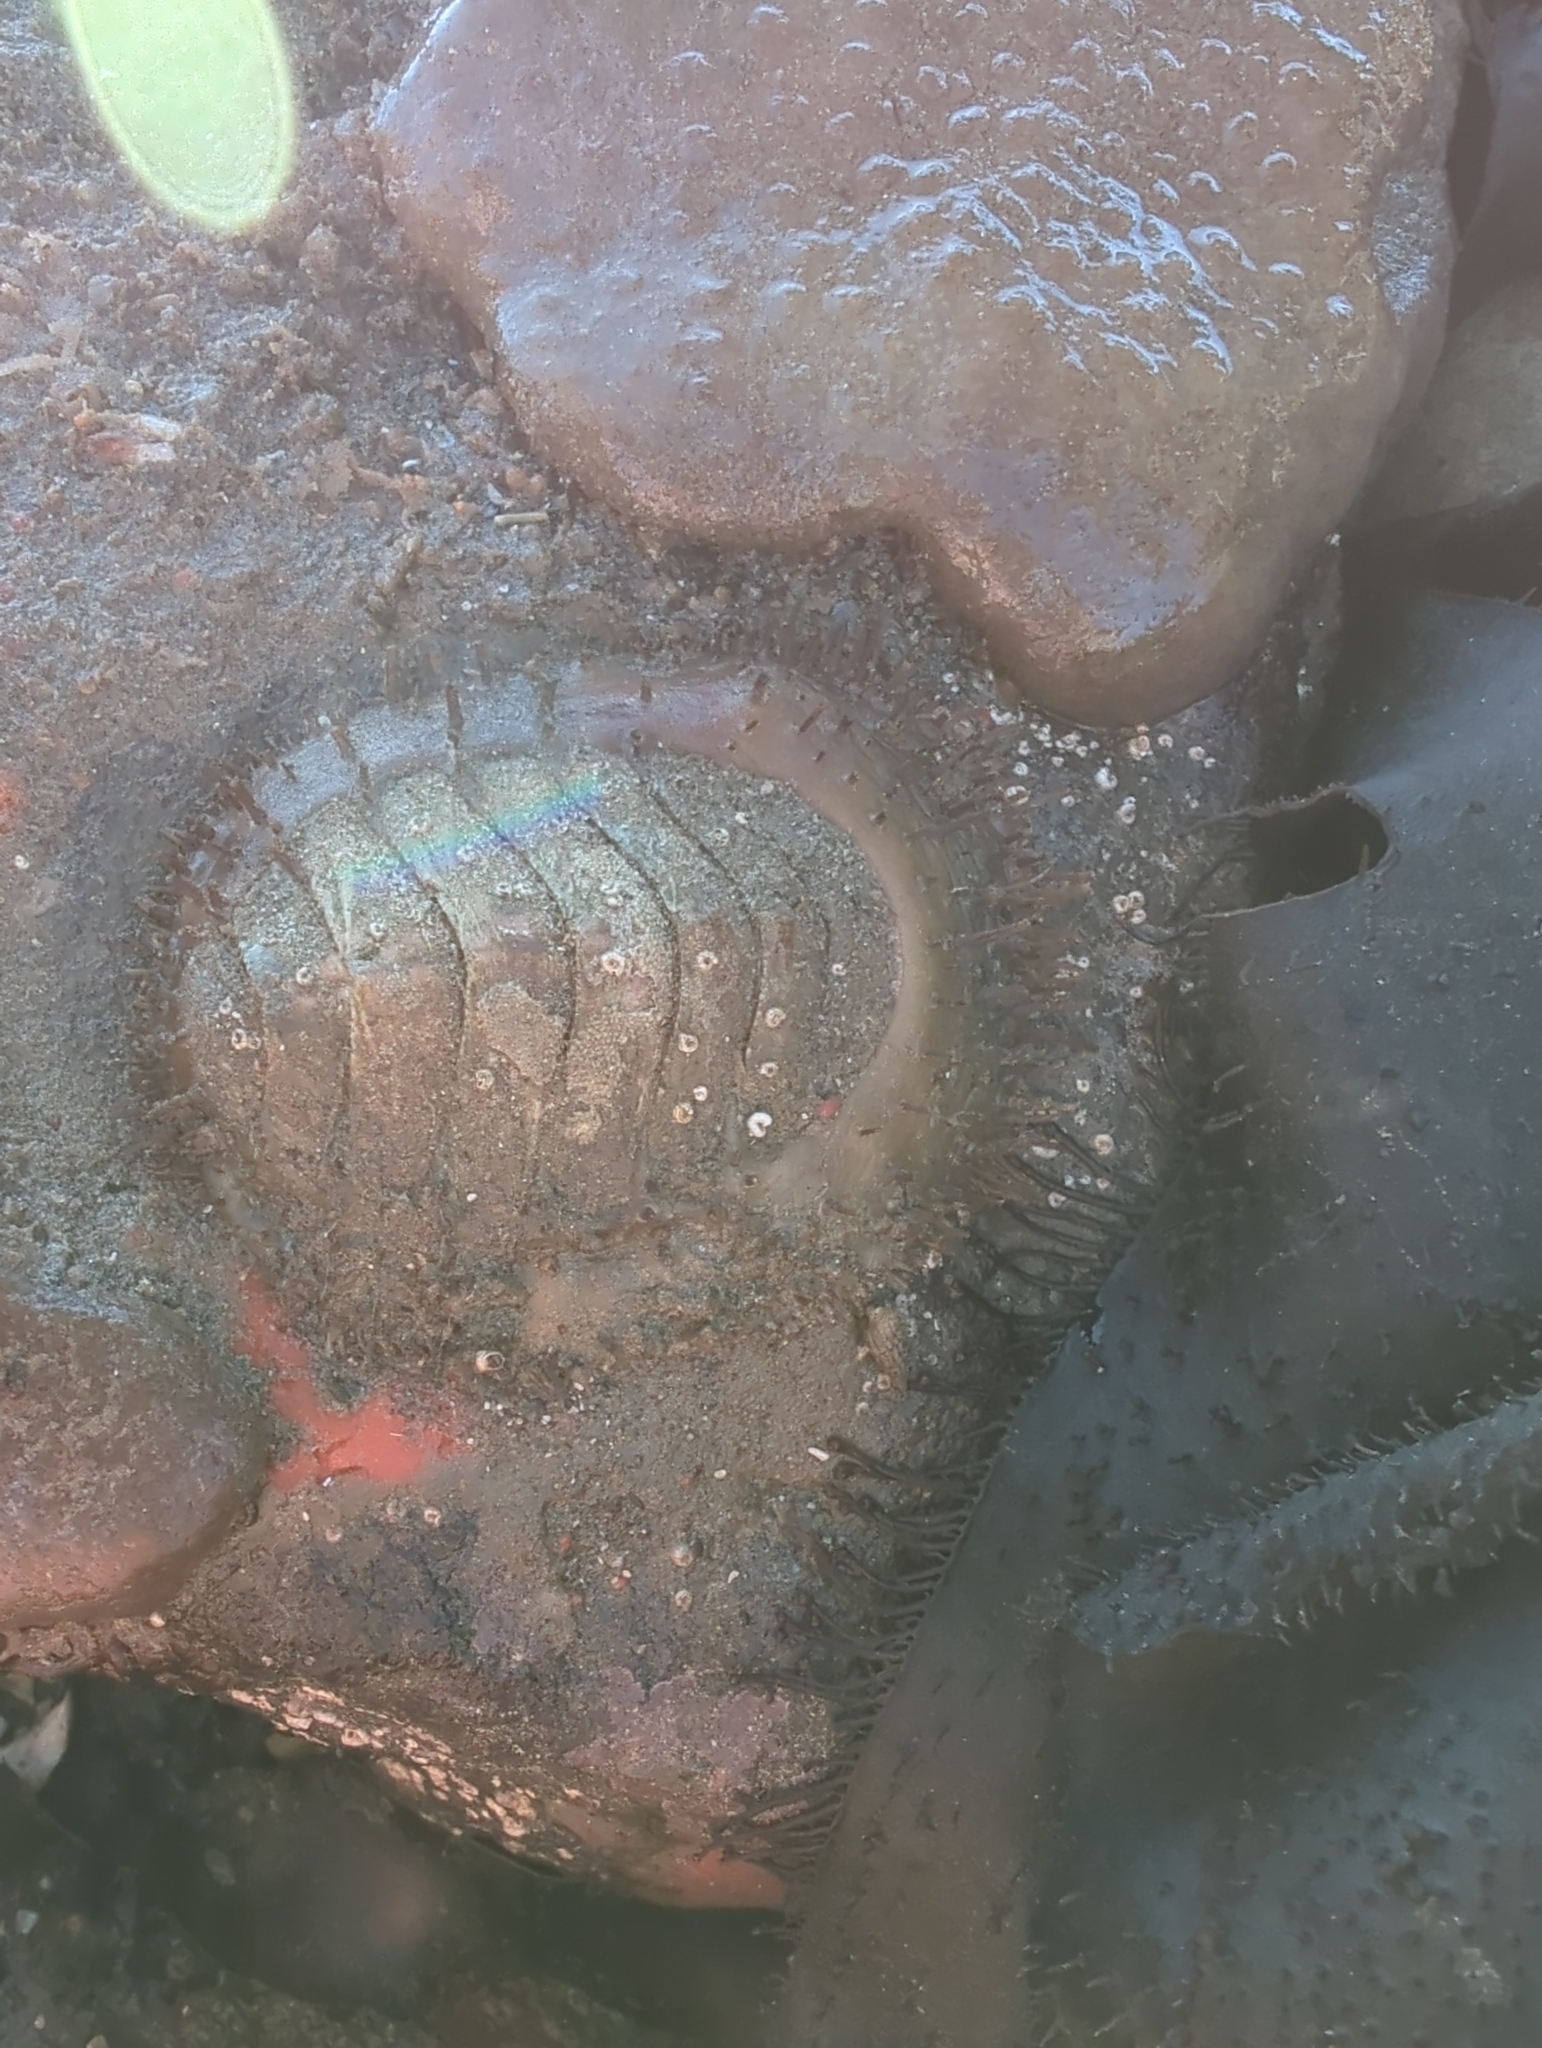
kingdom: Animalia
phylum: Mollusca
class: Polyplacophora
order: Chitonida
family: Mopaliidae
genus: Placiphorella
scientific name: Placiphorella velata
